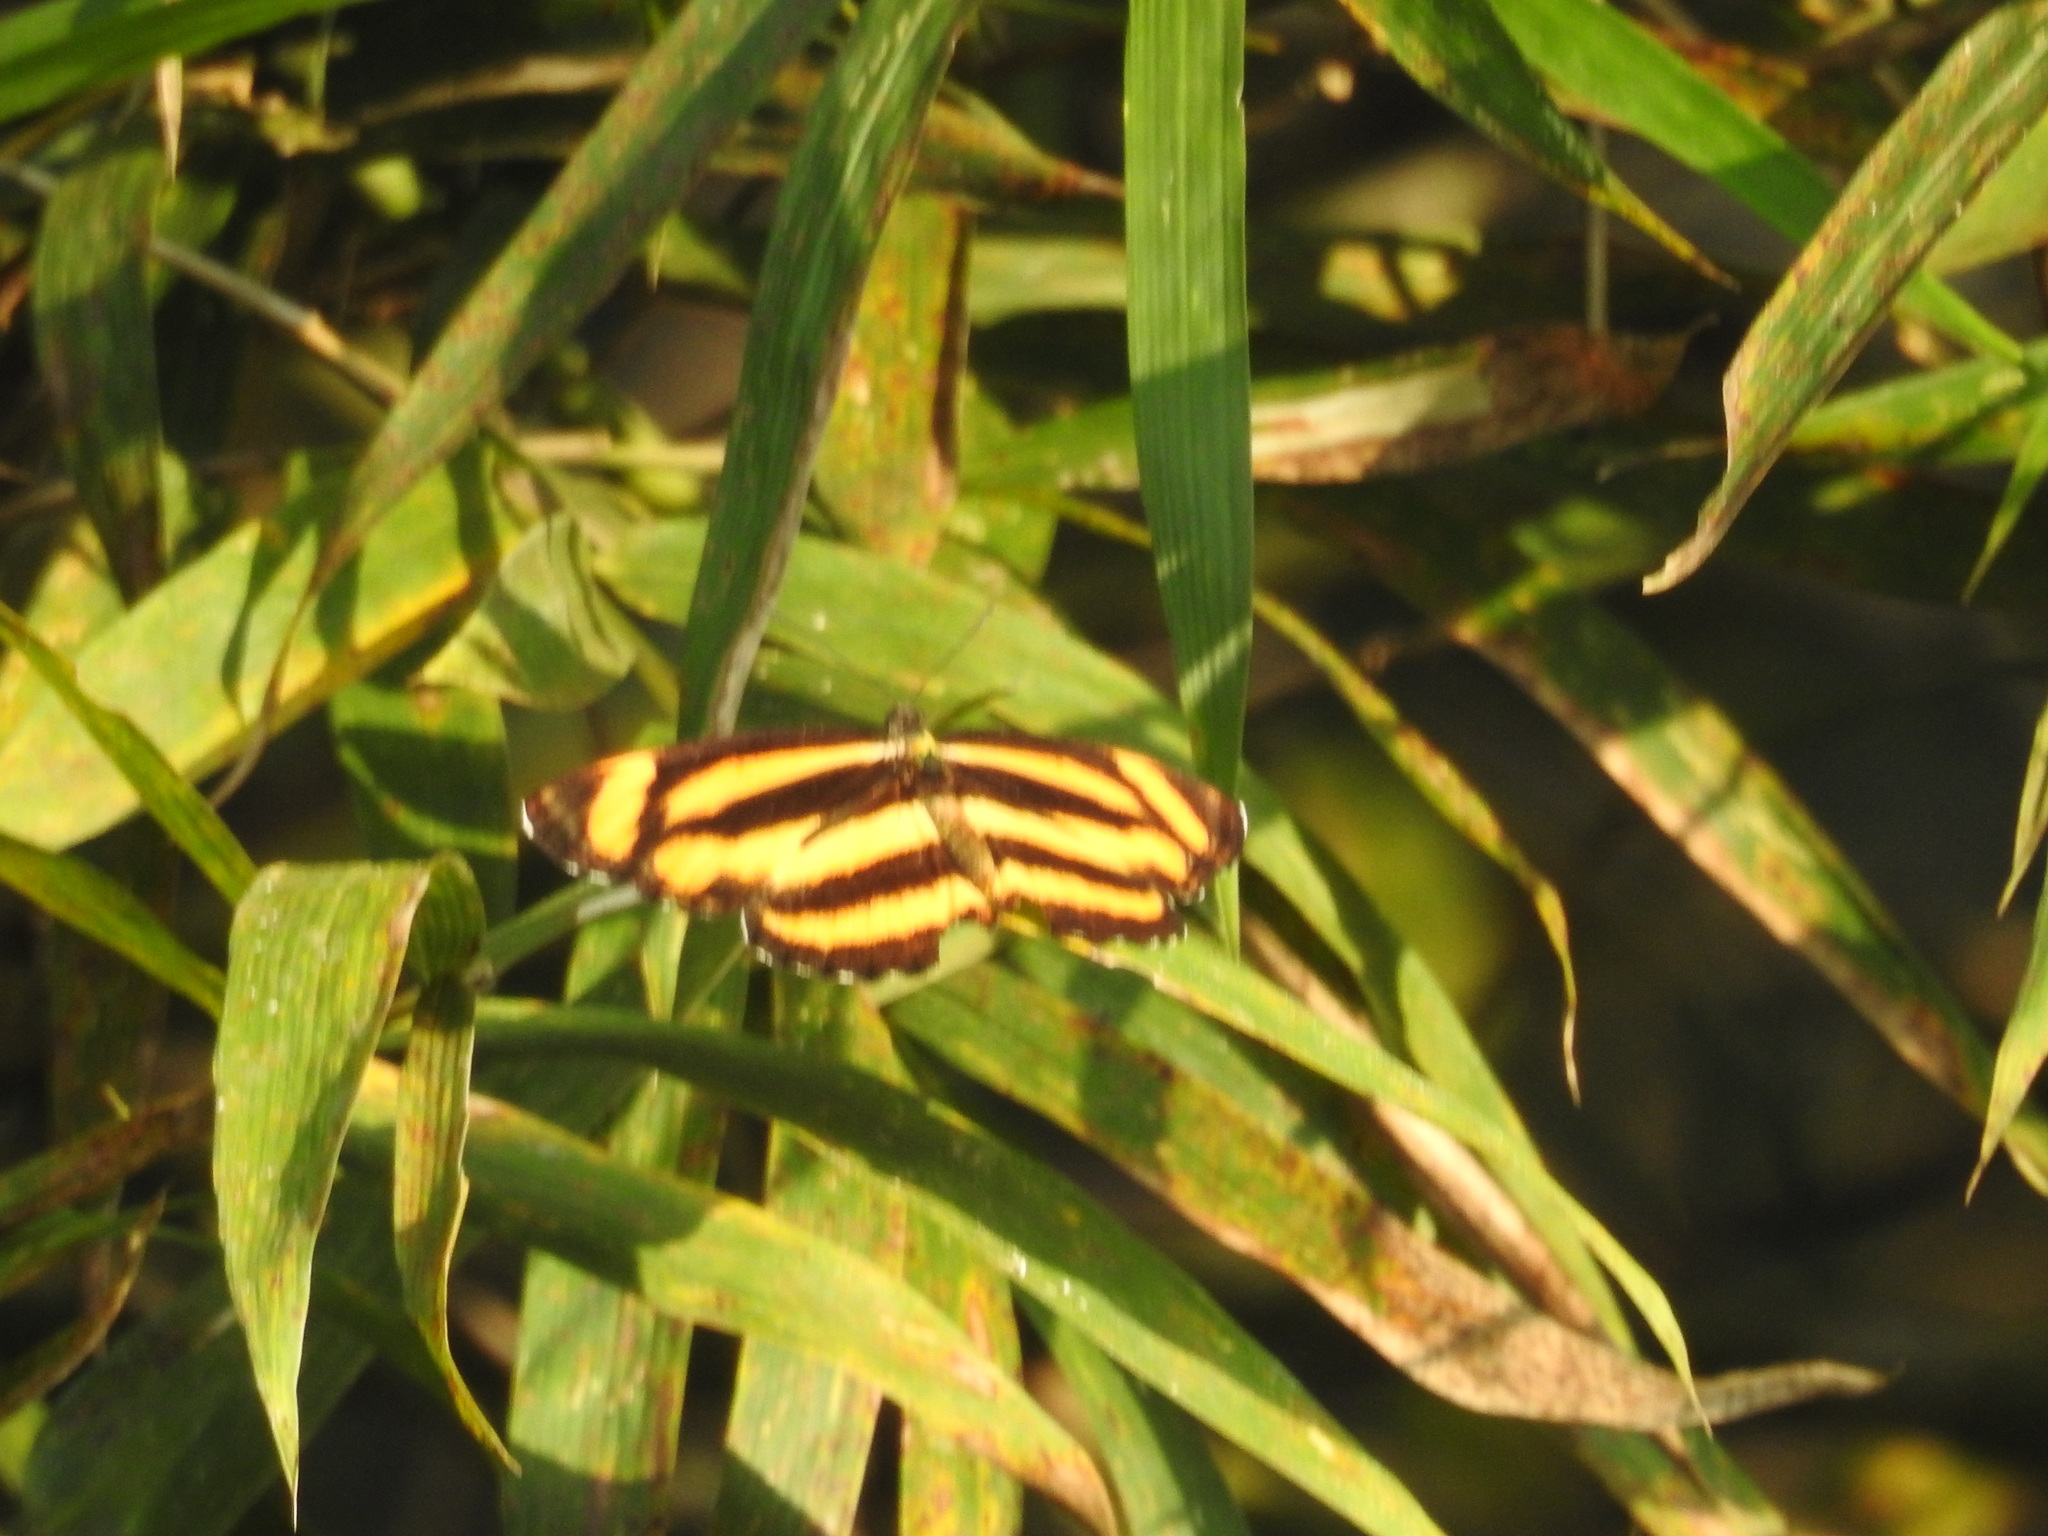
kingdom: Animalia
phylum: Arthropoda
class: Insecta
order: Lepidoptera
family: Nymphalidae
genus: Pantoporia
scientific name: Pantoporia hordonia
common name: Common lascar
